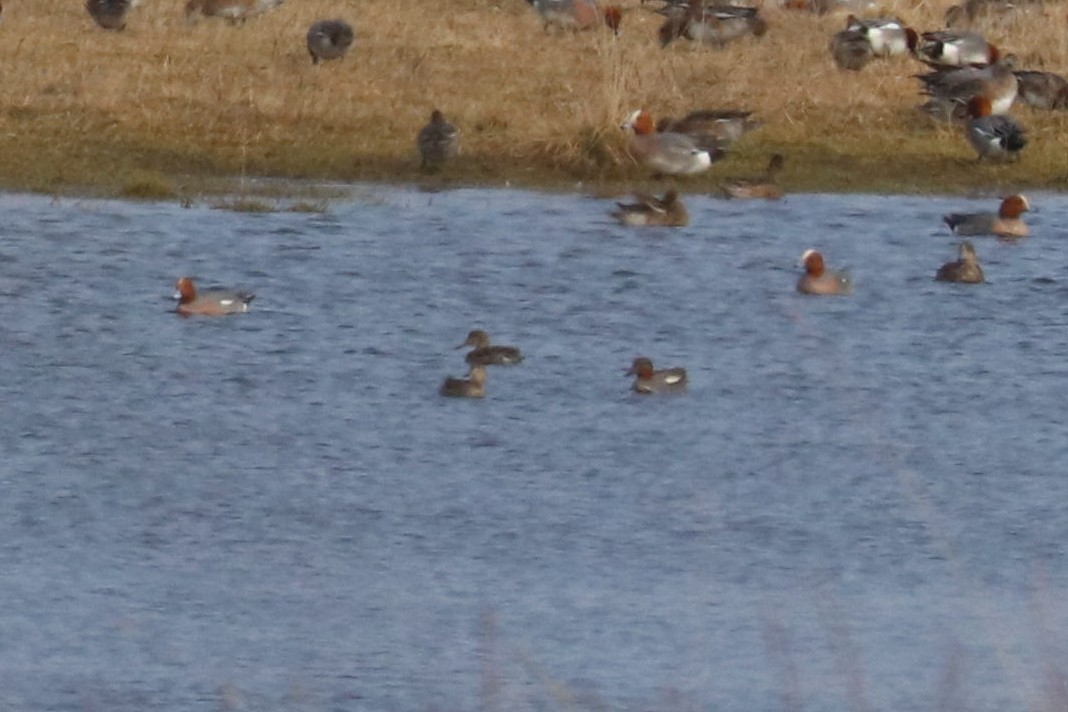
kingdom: Animalia
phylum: Chordata
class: Aves
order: Anseriformes
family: Anatidae
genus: Anas
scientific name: Anas crecca
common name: Eurasian teal
